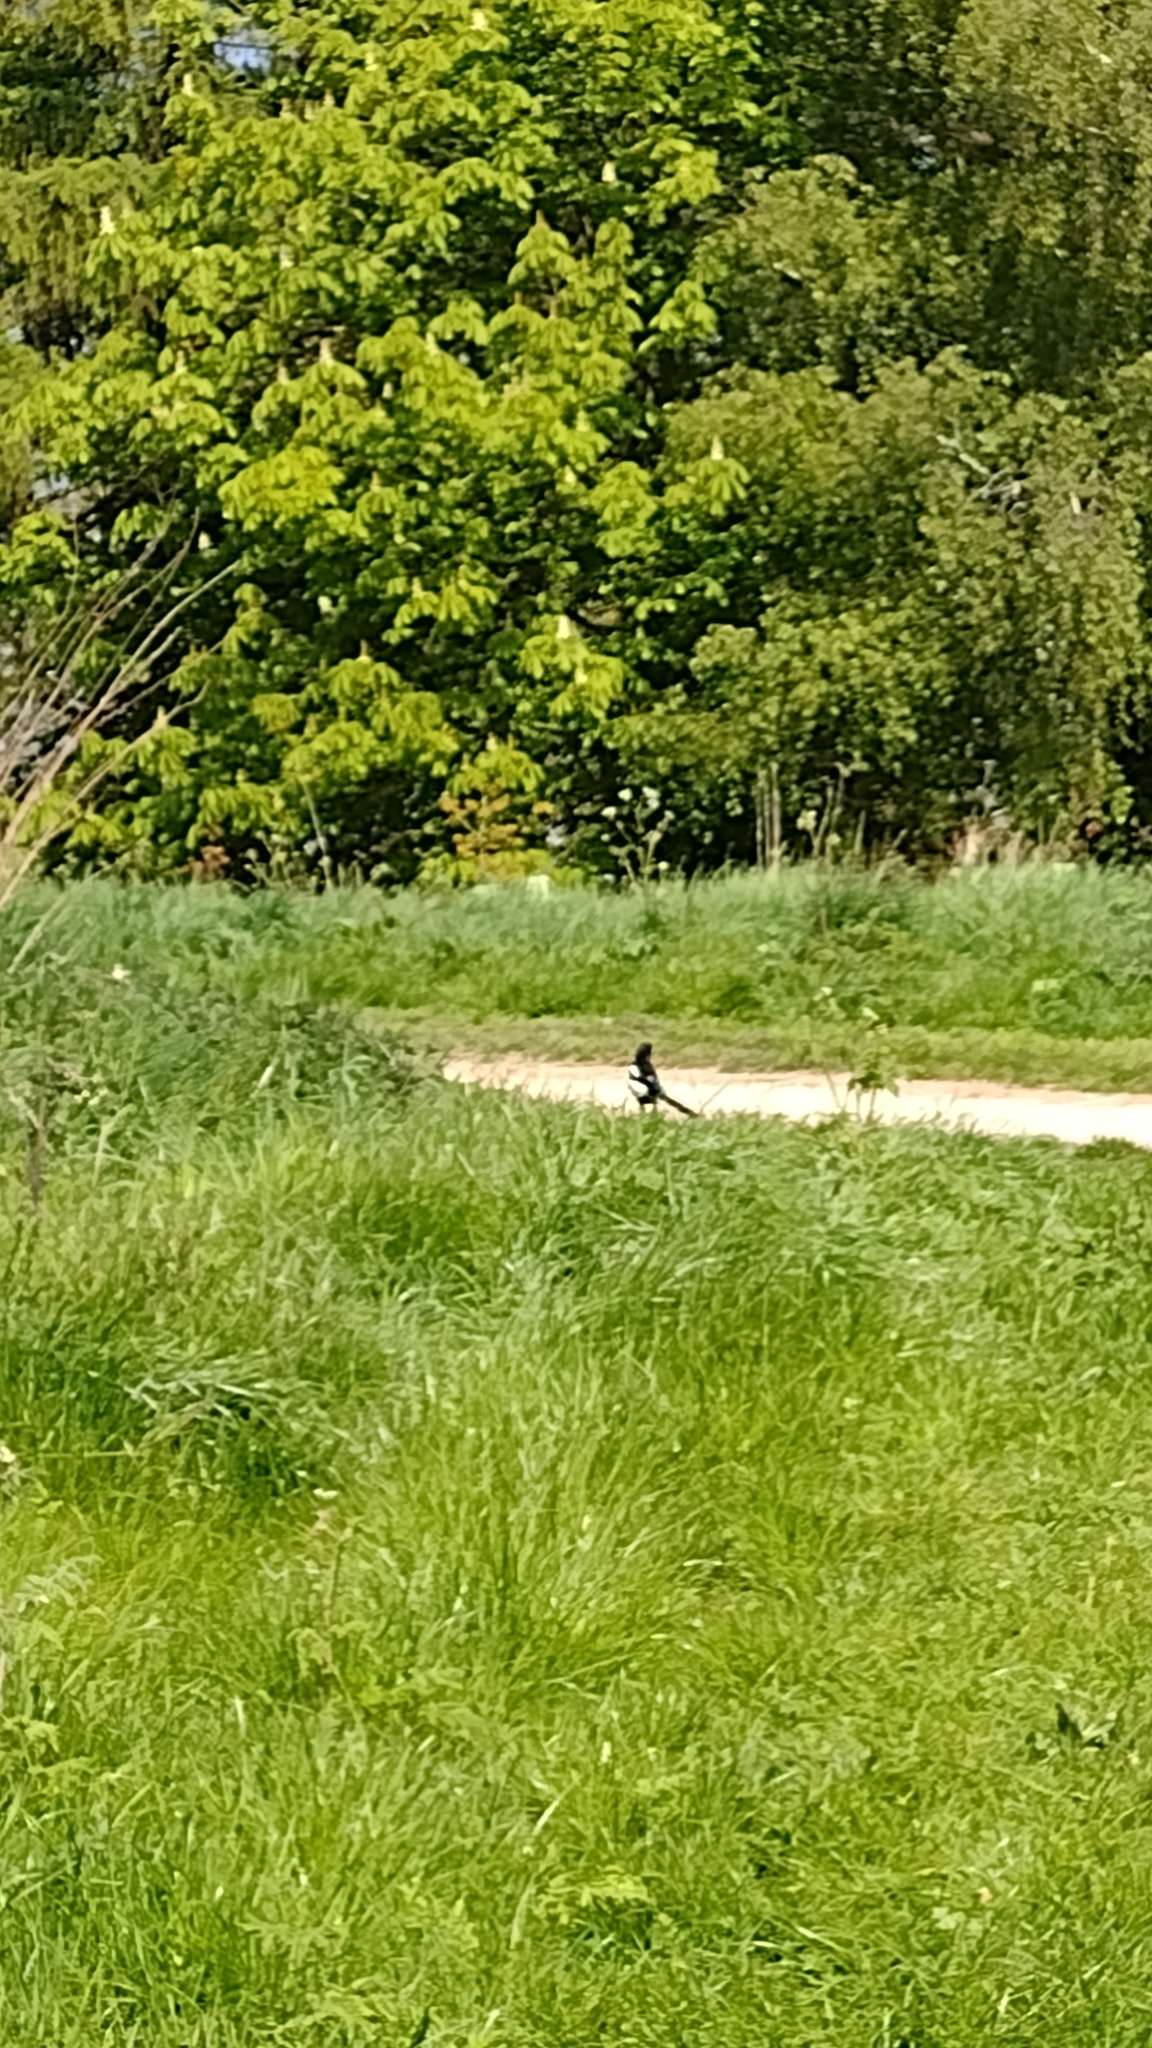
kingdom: Animalia
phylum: Chordata
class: Aves
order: Passeriformes
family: Corvidae
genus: Pica
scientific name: Pica pica
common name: Eurasian magpie
